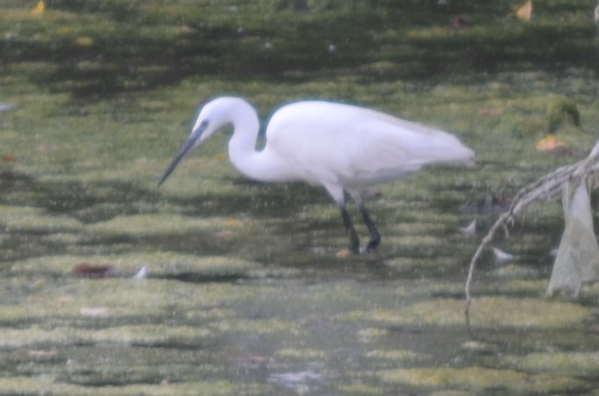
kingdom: Animalia
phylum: Chordata
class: Aves
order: Pelecaniformes
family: Ardeidae
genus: Egretta
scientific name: Egretta garzetta
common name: Little egret
